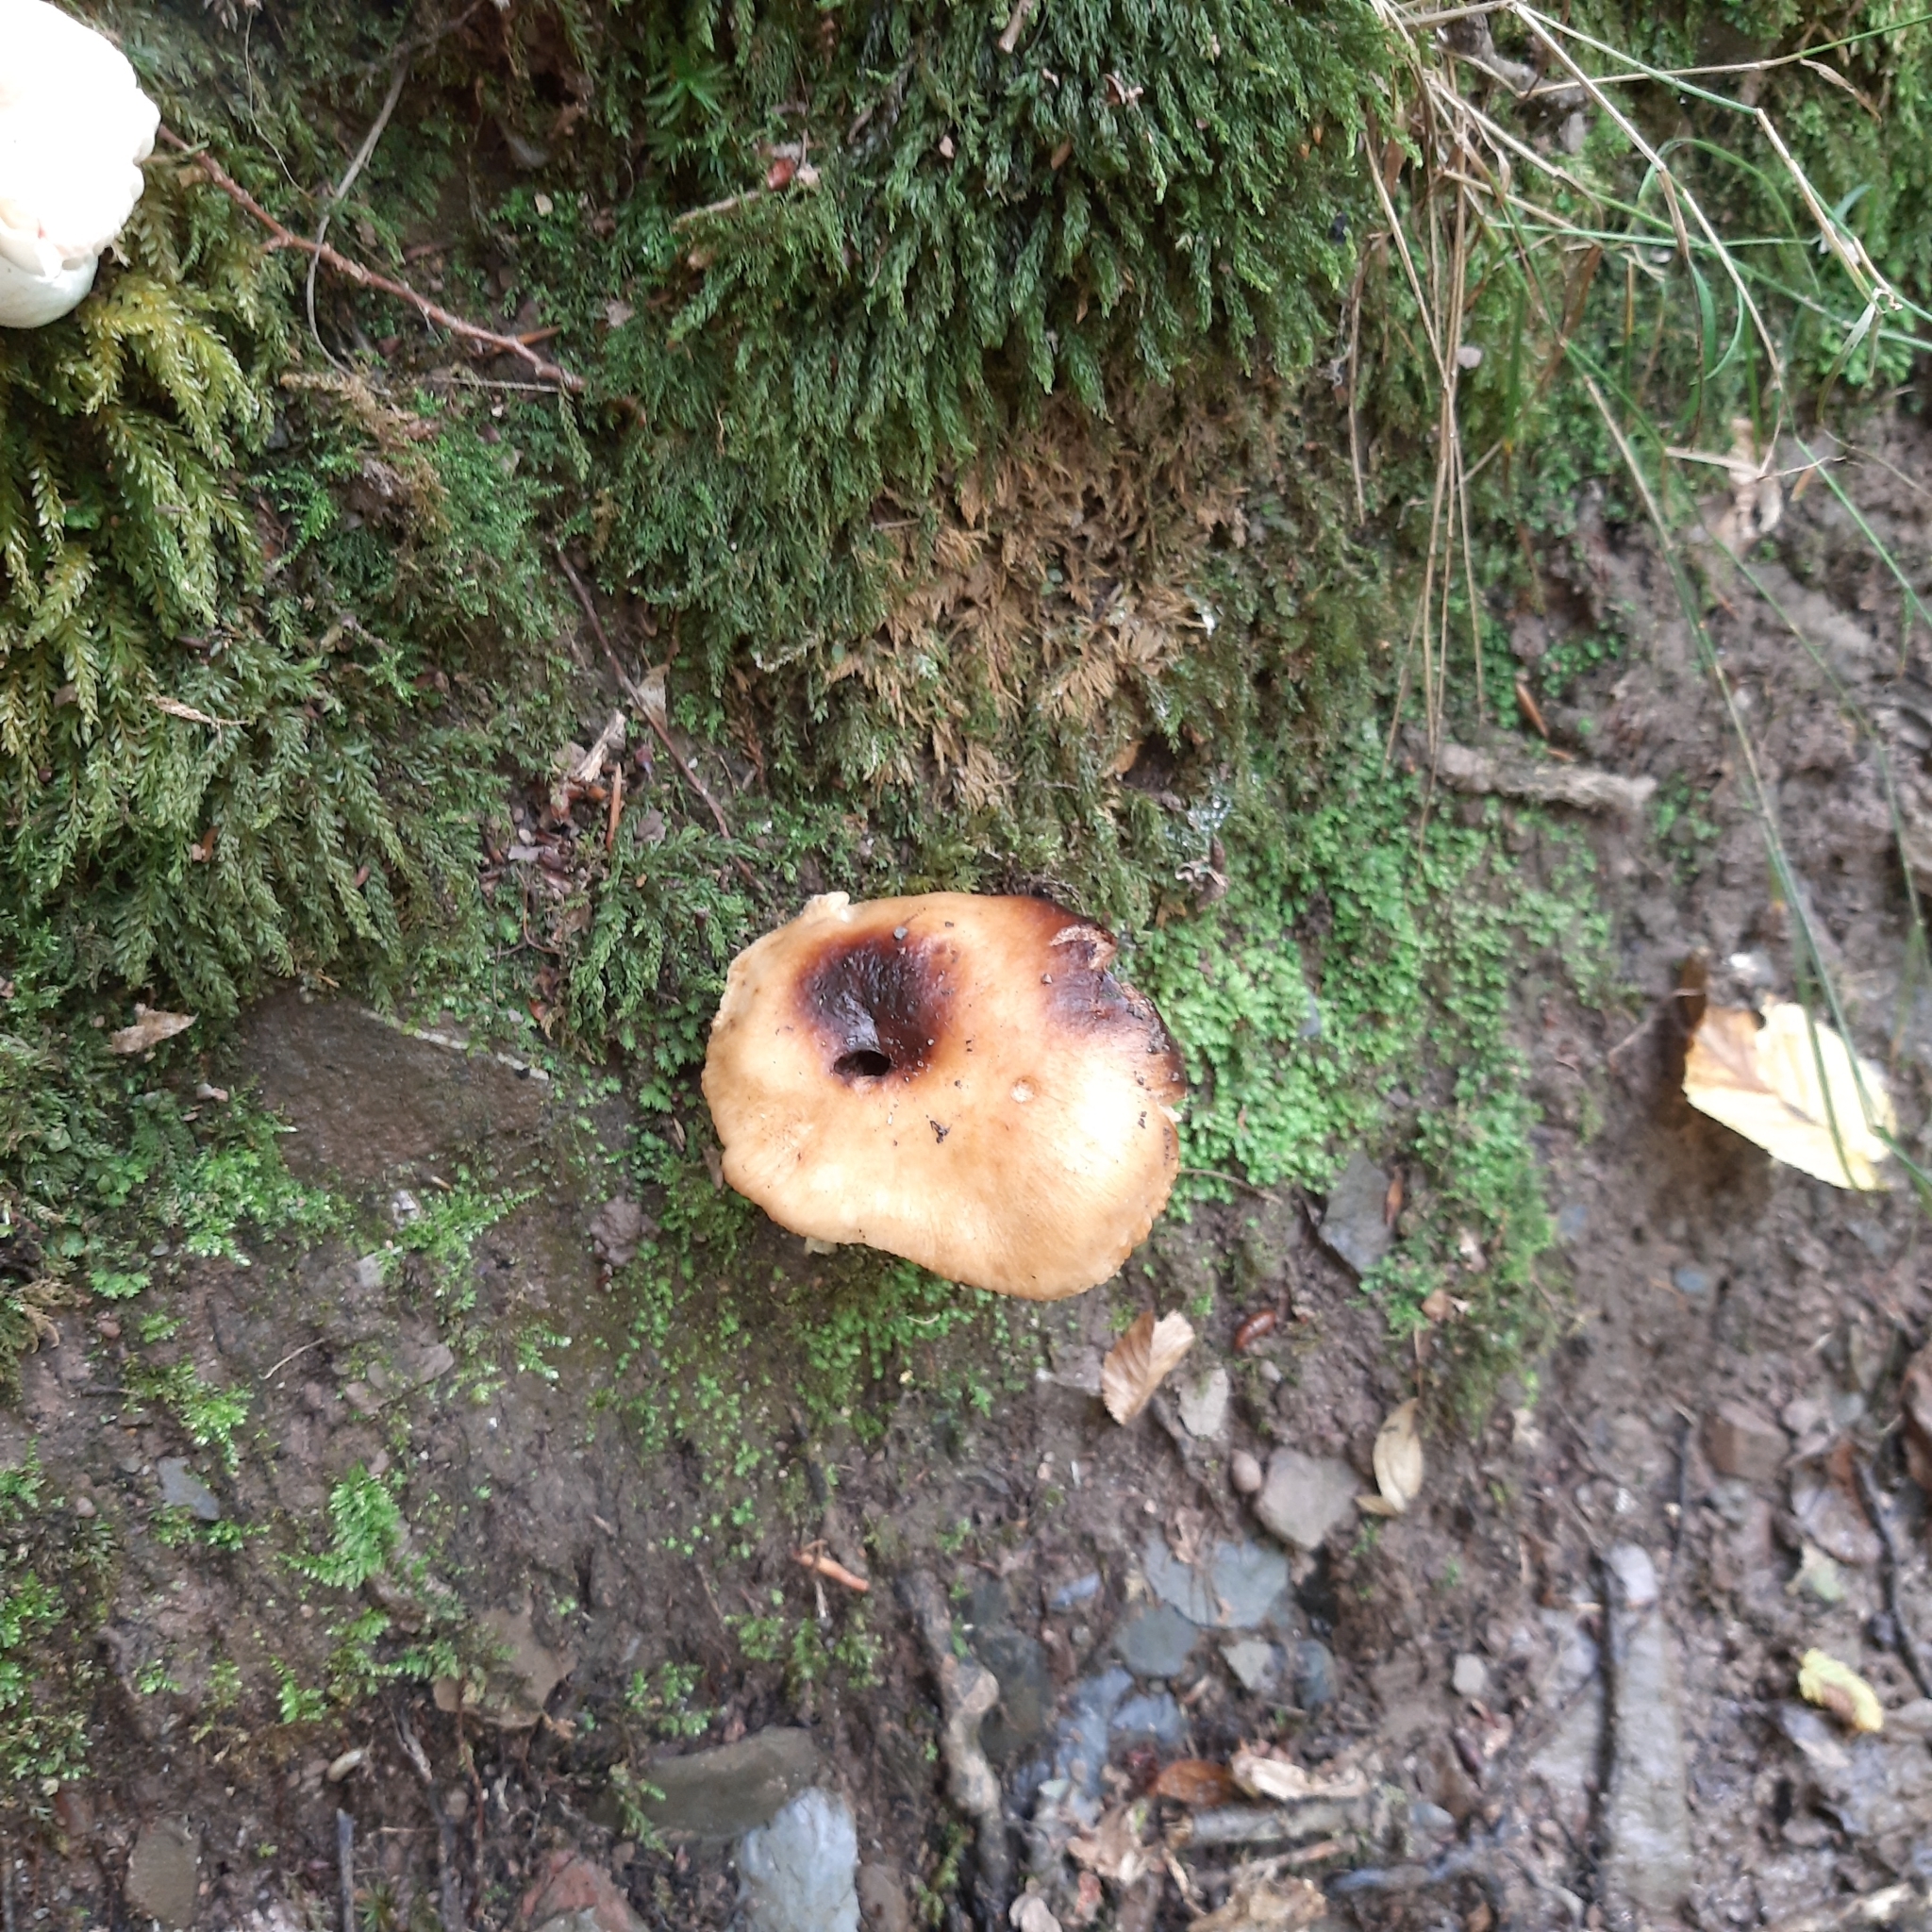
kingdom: Fungi
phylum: Basidiomycota
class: Agaricomycetes
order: Russulales
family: Russulaceae
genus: Russula
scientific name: Russula
